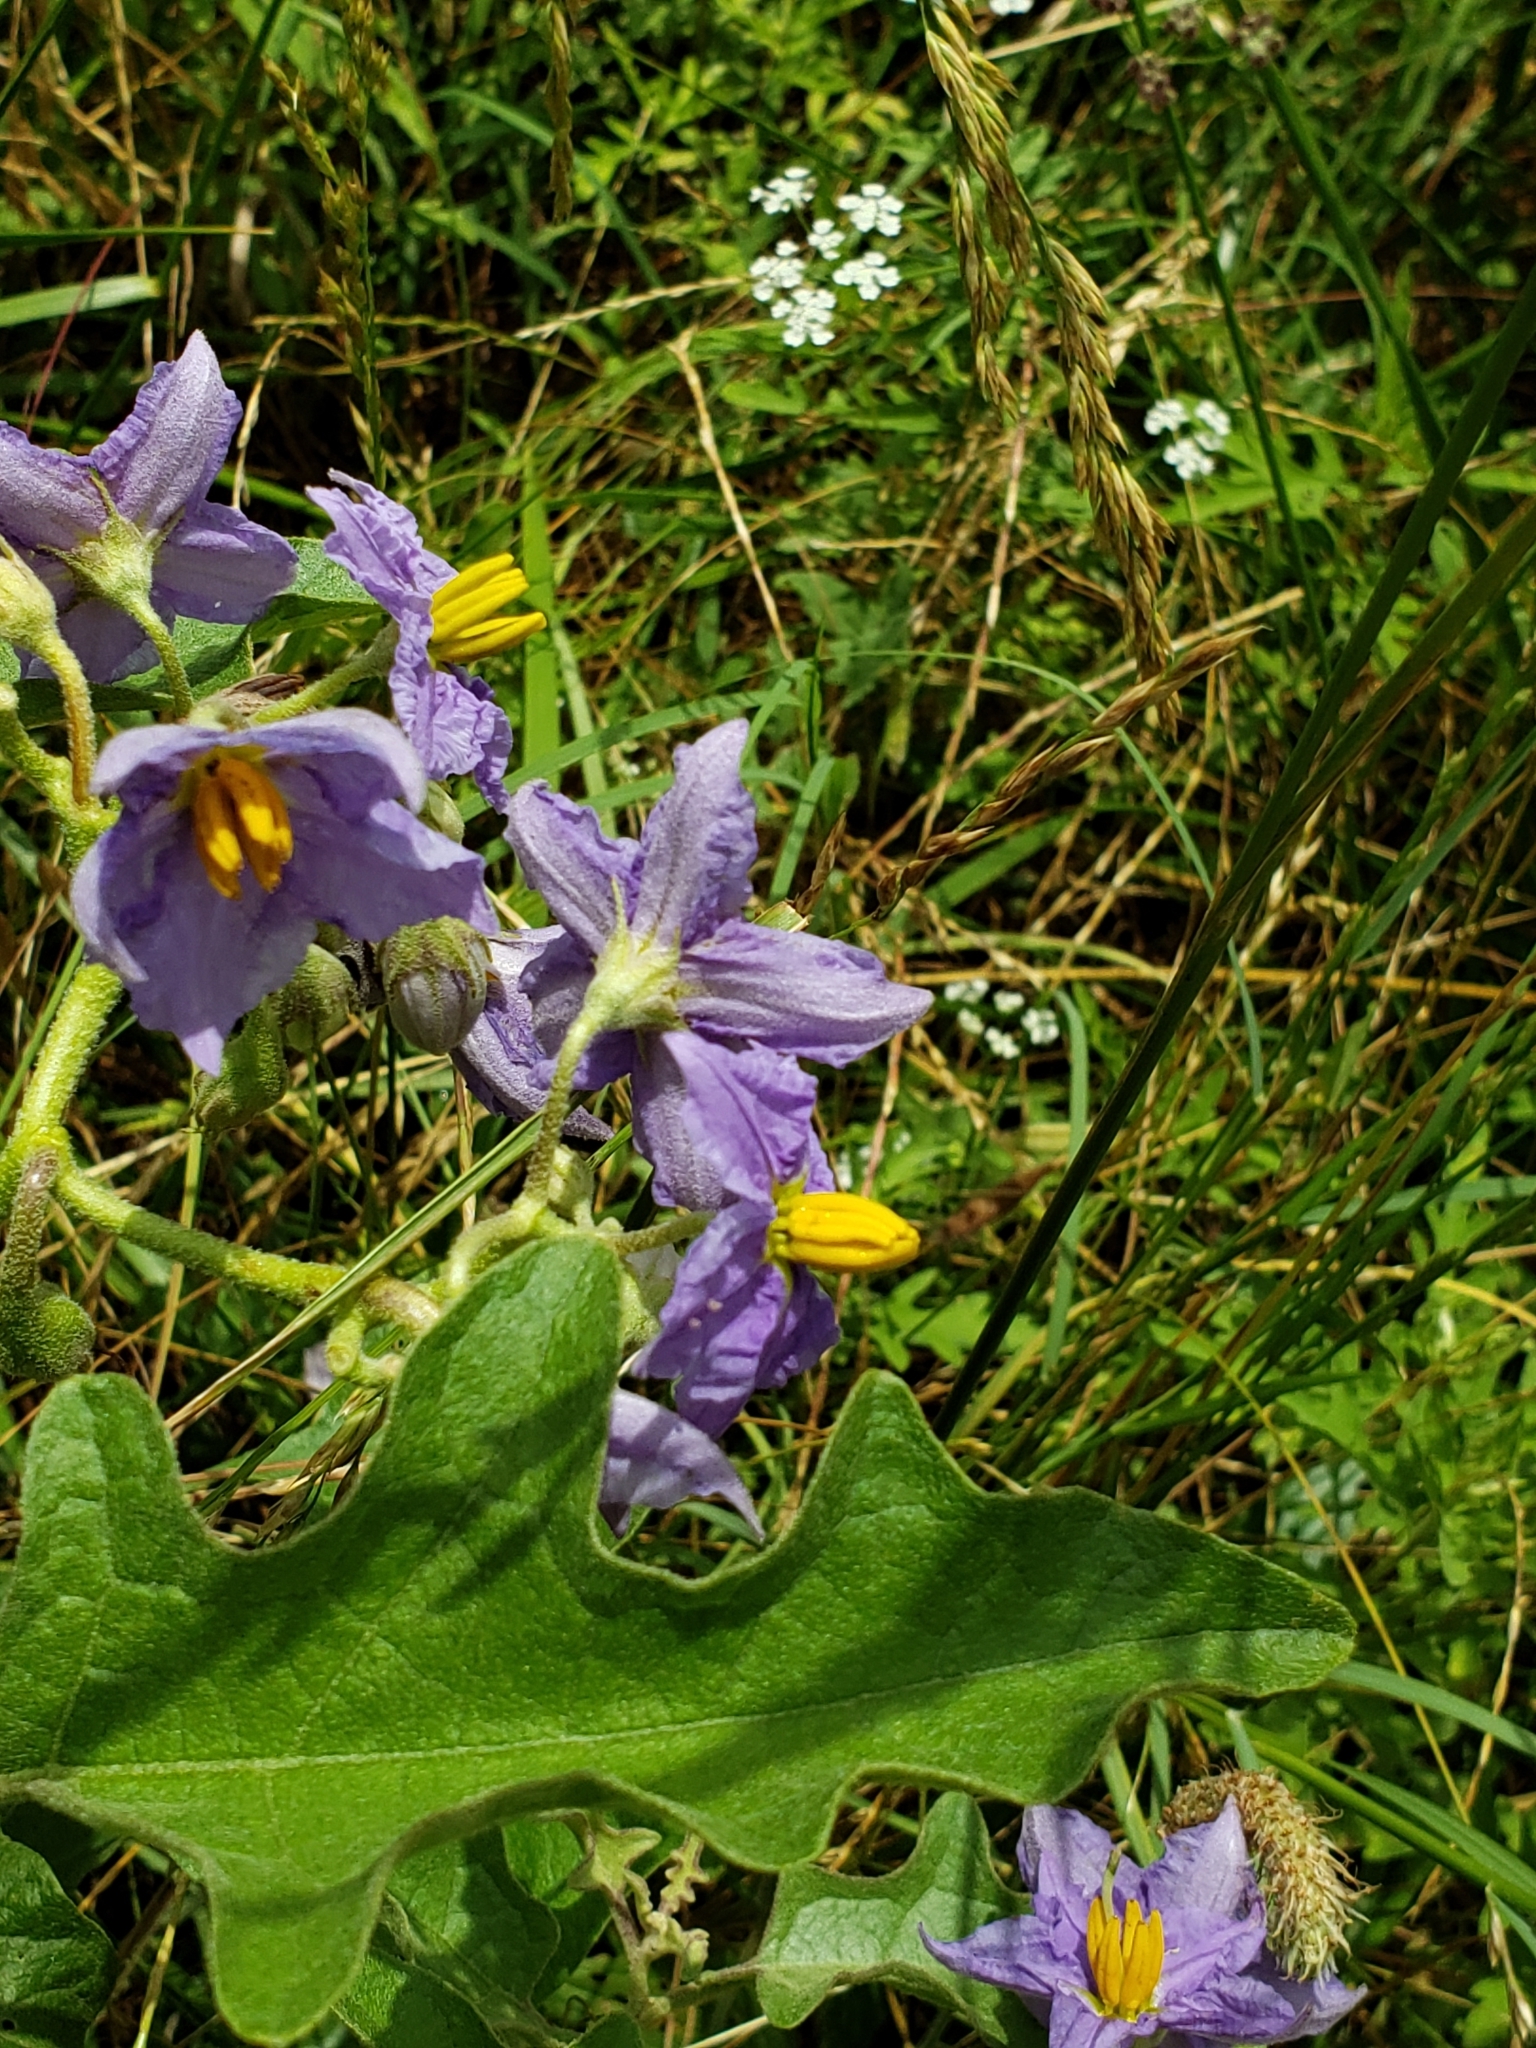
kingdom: Plantae
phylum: Tracheophyta
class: Magnoliopsida
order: Solanales
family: Solanaceae
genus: Solanum
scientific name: Solanum dimidiatum
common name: Carolina horse-nettle
